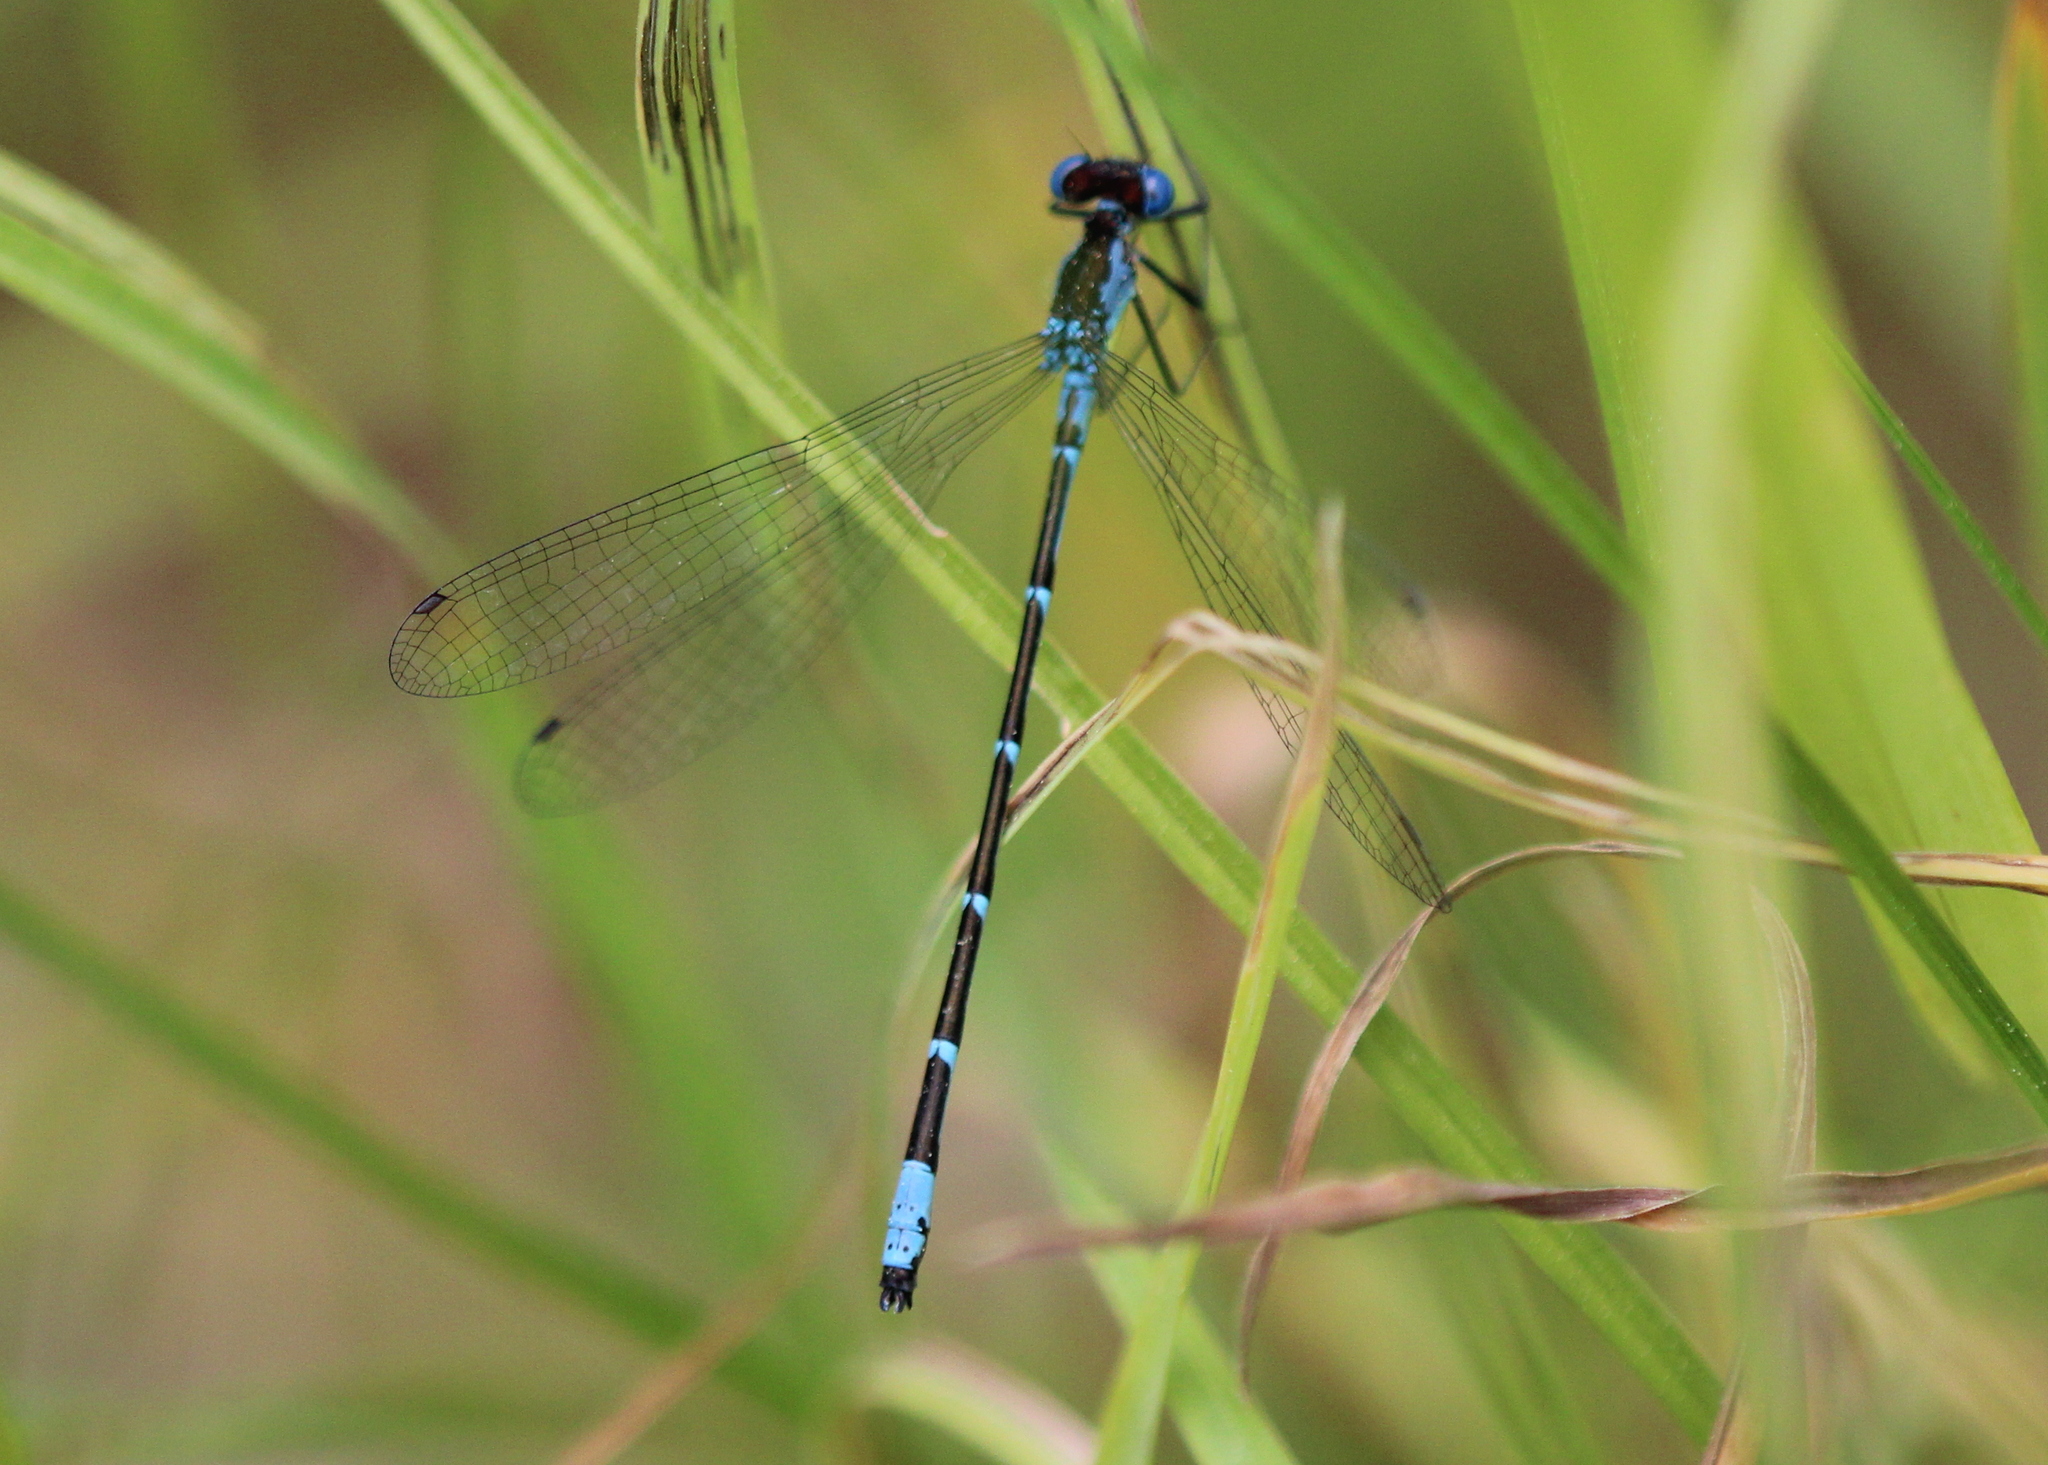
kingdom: Animalia
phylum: Arthropoda
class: Insecta
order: Odonata
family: Coenagrionidae
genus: Chromagrion
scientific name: Chromagrion conditum
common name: Aurora damsel
